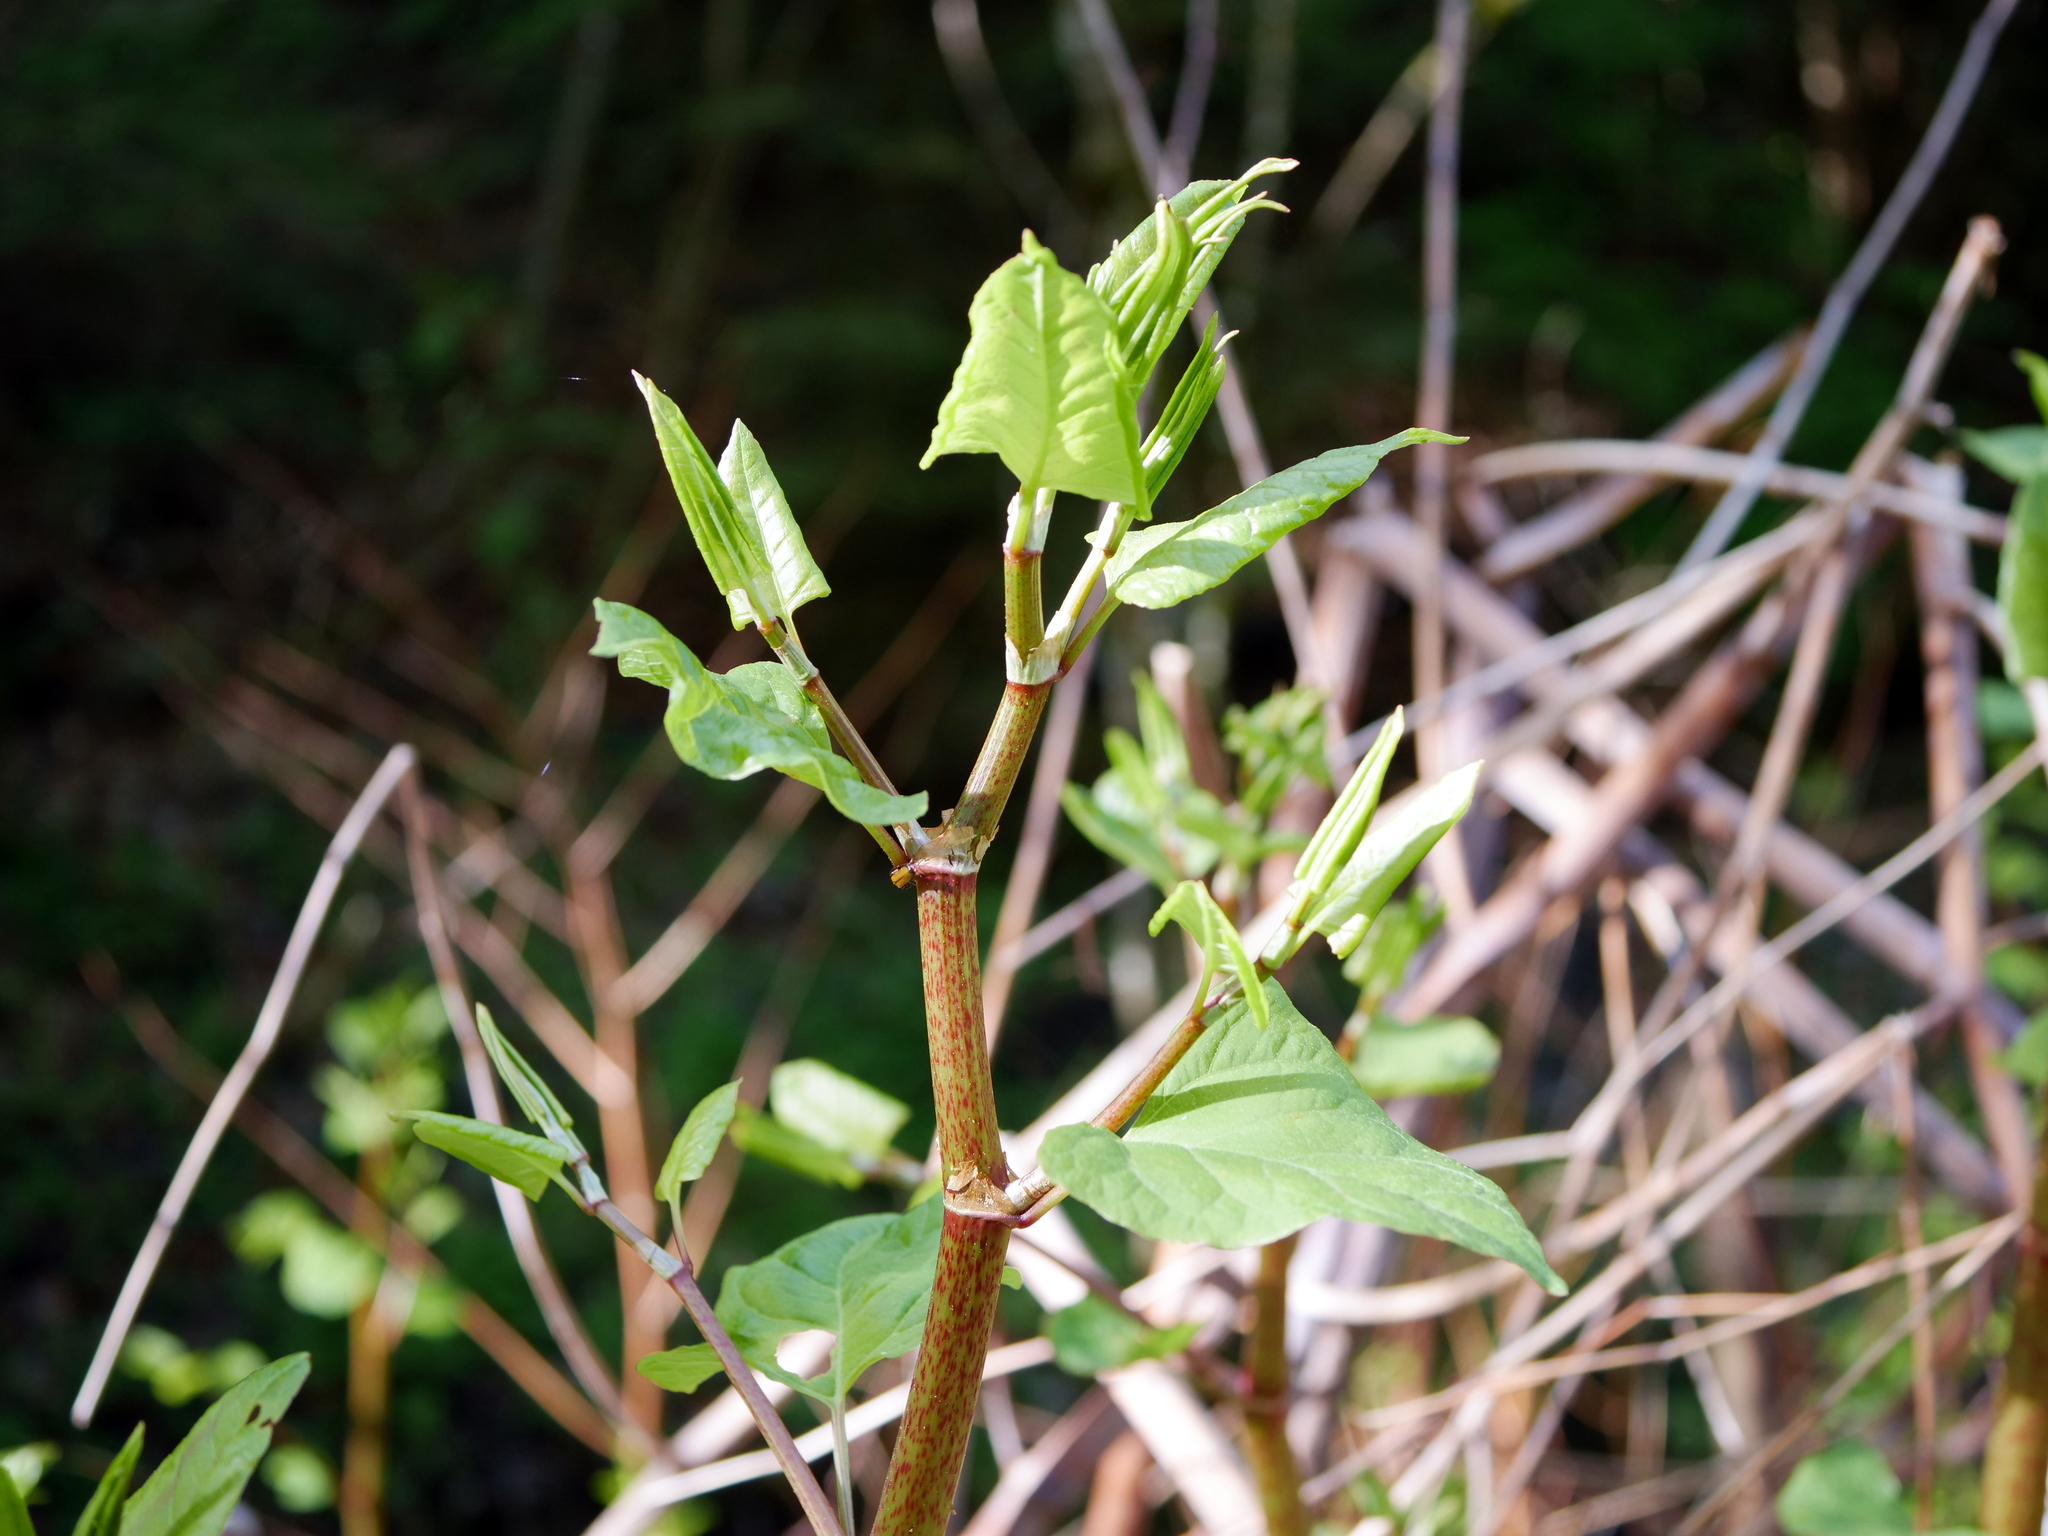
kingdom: Plantae
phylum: Tracheophyta
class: Magnoliopsida
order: Caryophyllales
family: Polygonaceae
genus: Reynoutria
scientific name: Reynoutria
